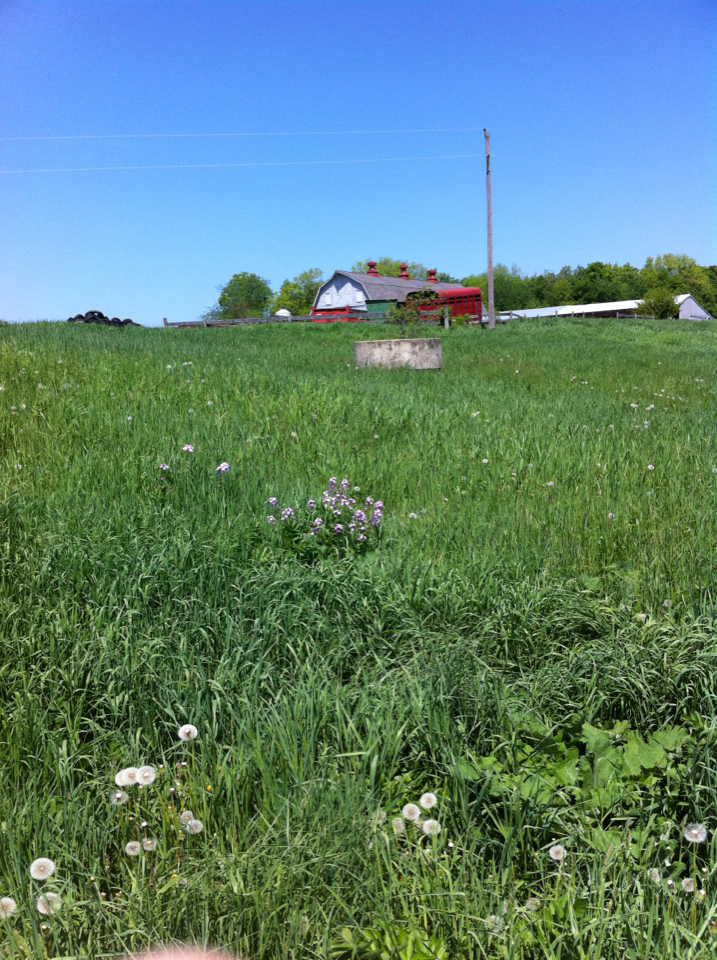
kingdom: Plantae
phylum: Tracheophyta
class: Magnoliopsida
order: Brassicales
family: Brassicaceae
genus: Hesperis
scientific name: Hesperis matronalis
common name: Dame's-violet
